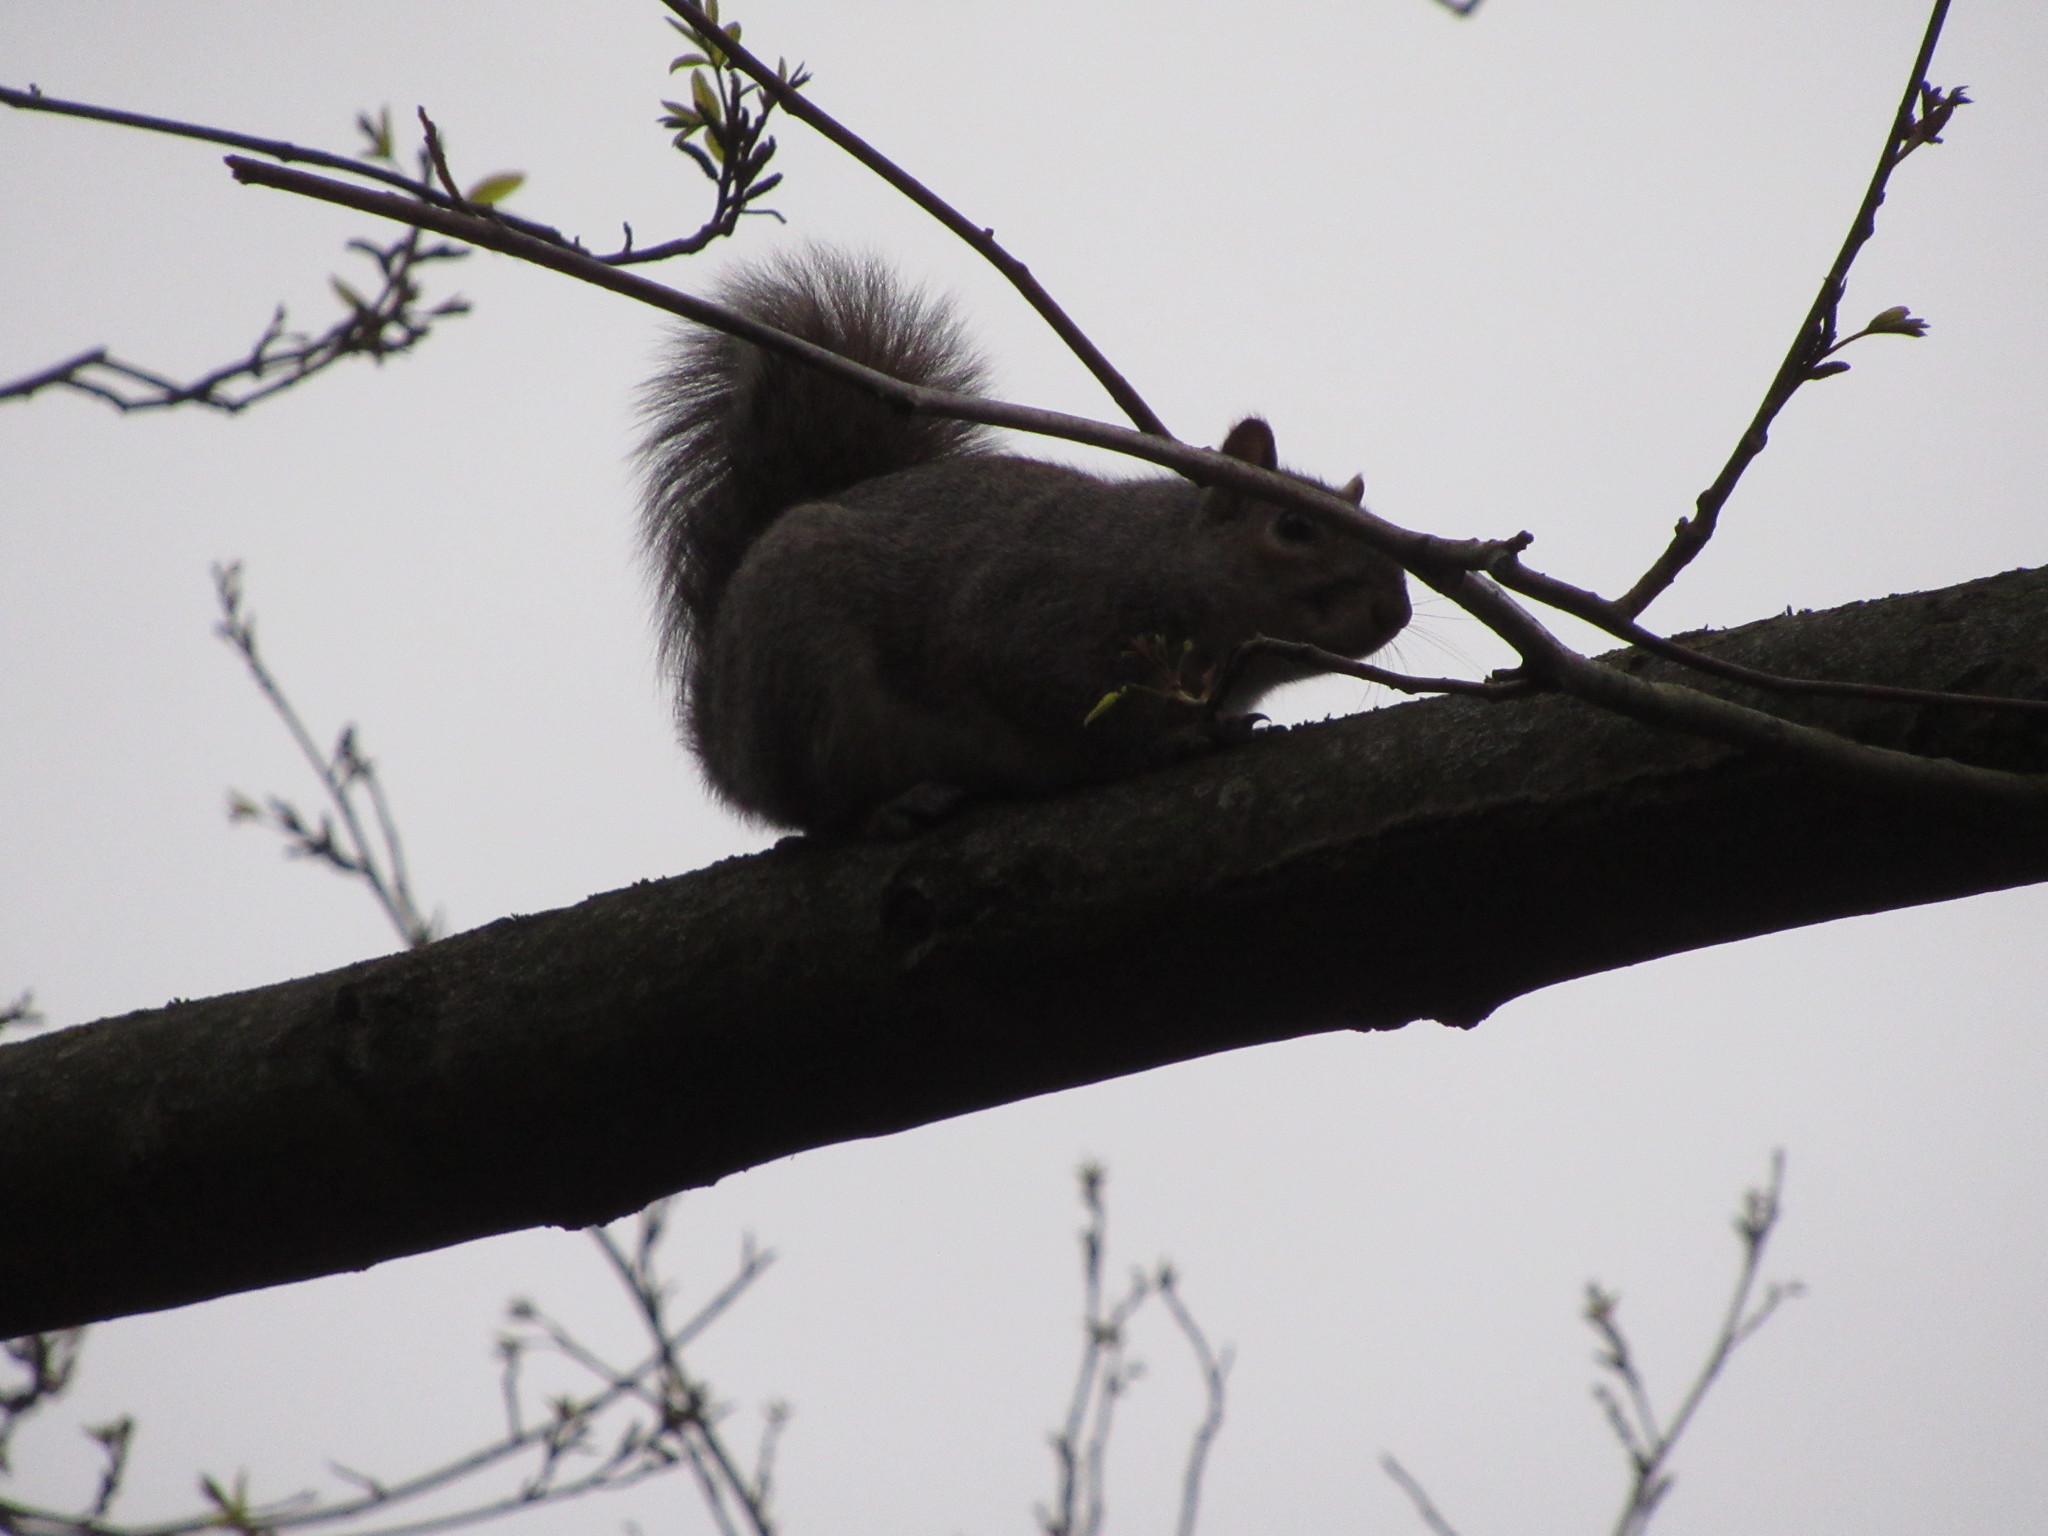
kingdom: Animalia
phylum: Chordata
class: Mammalia
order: Rodentia
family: Sciuridae
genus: Sciurus
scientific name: Sciurus carolinensis
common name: Eastern gray squirrel
